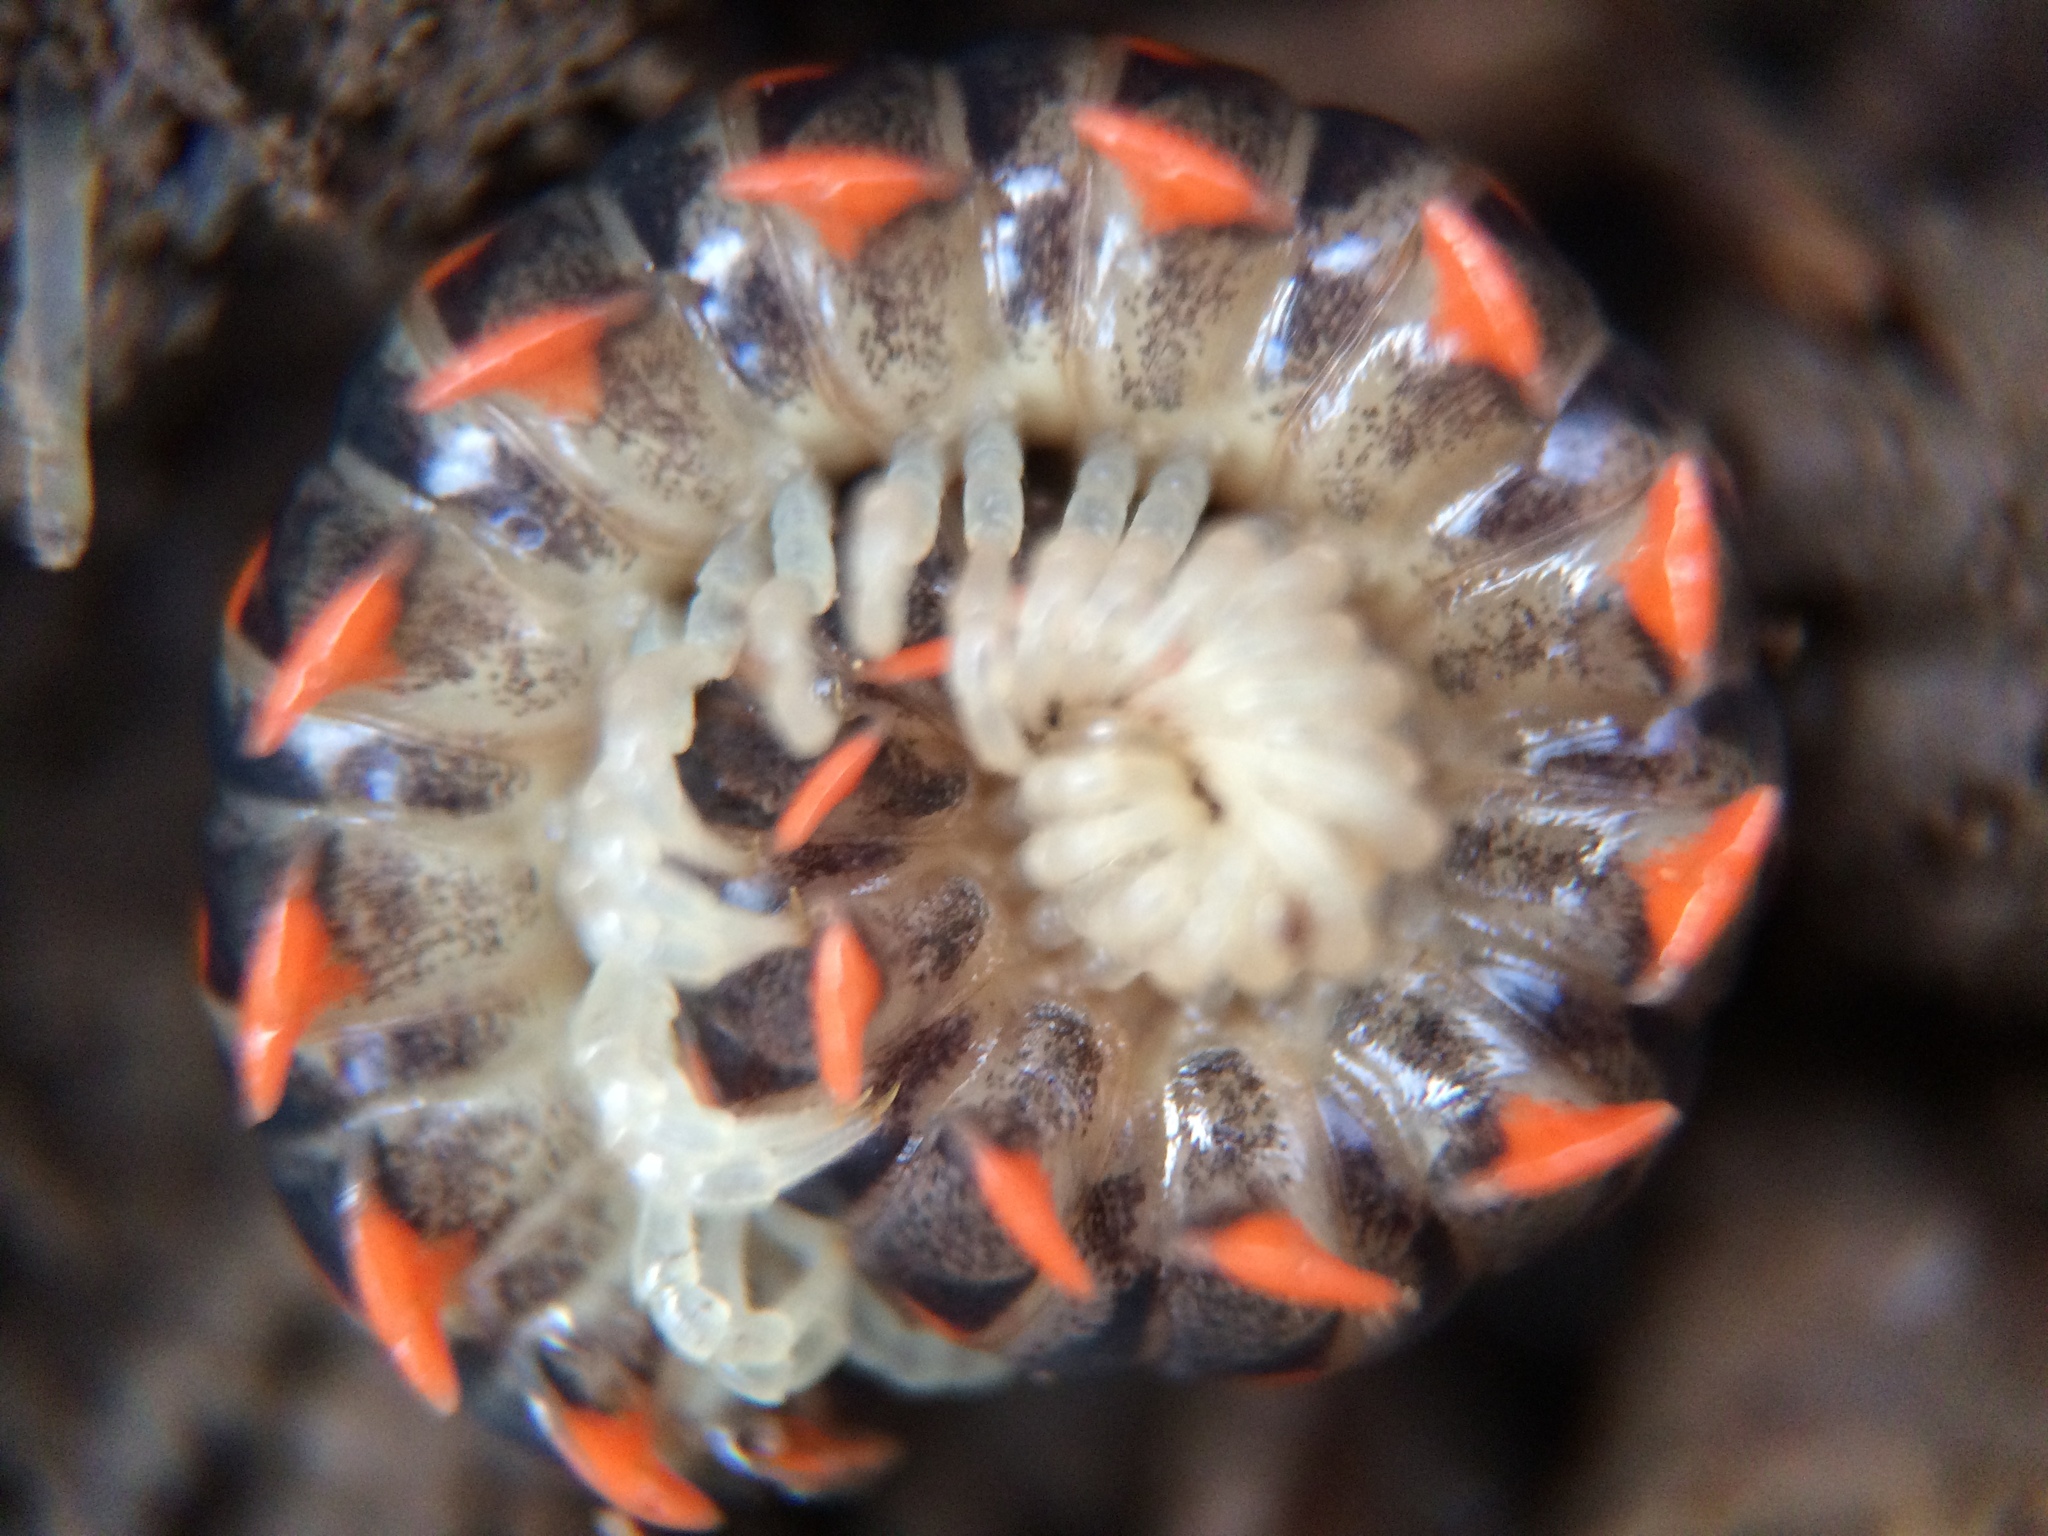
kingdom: Animalia
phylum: Arthropoda
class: Diplopoda
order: Polydesmida
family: Xystodesmidae
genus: Euryurus
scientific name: Euryurus leachii
